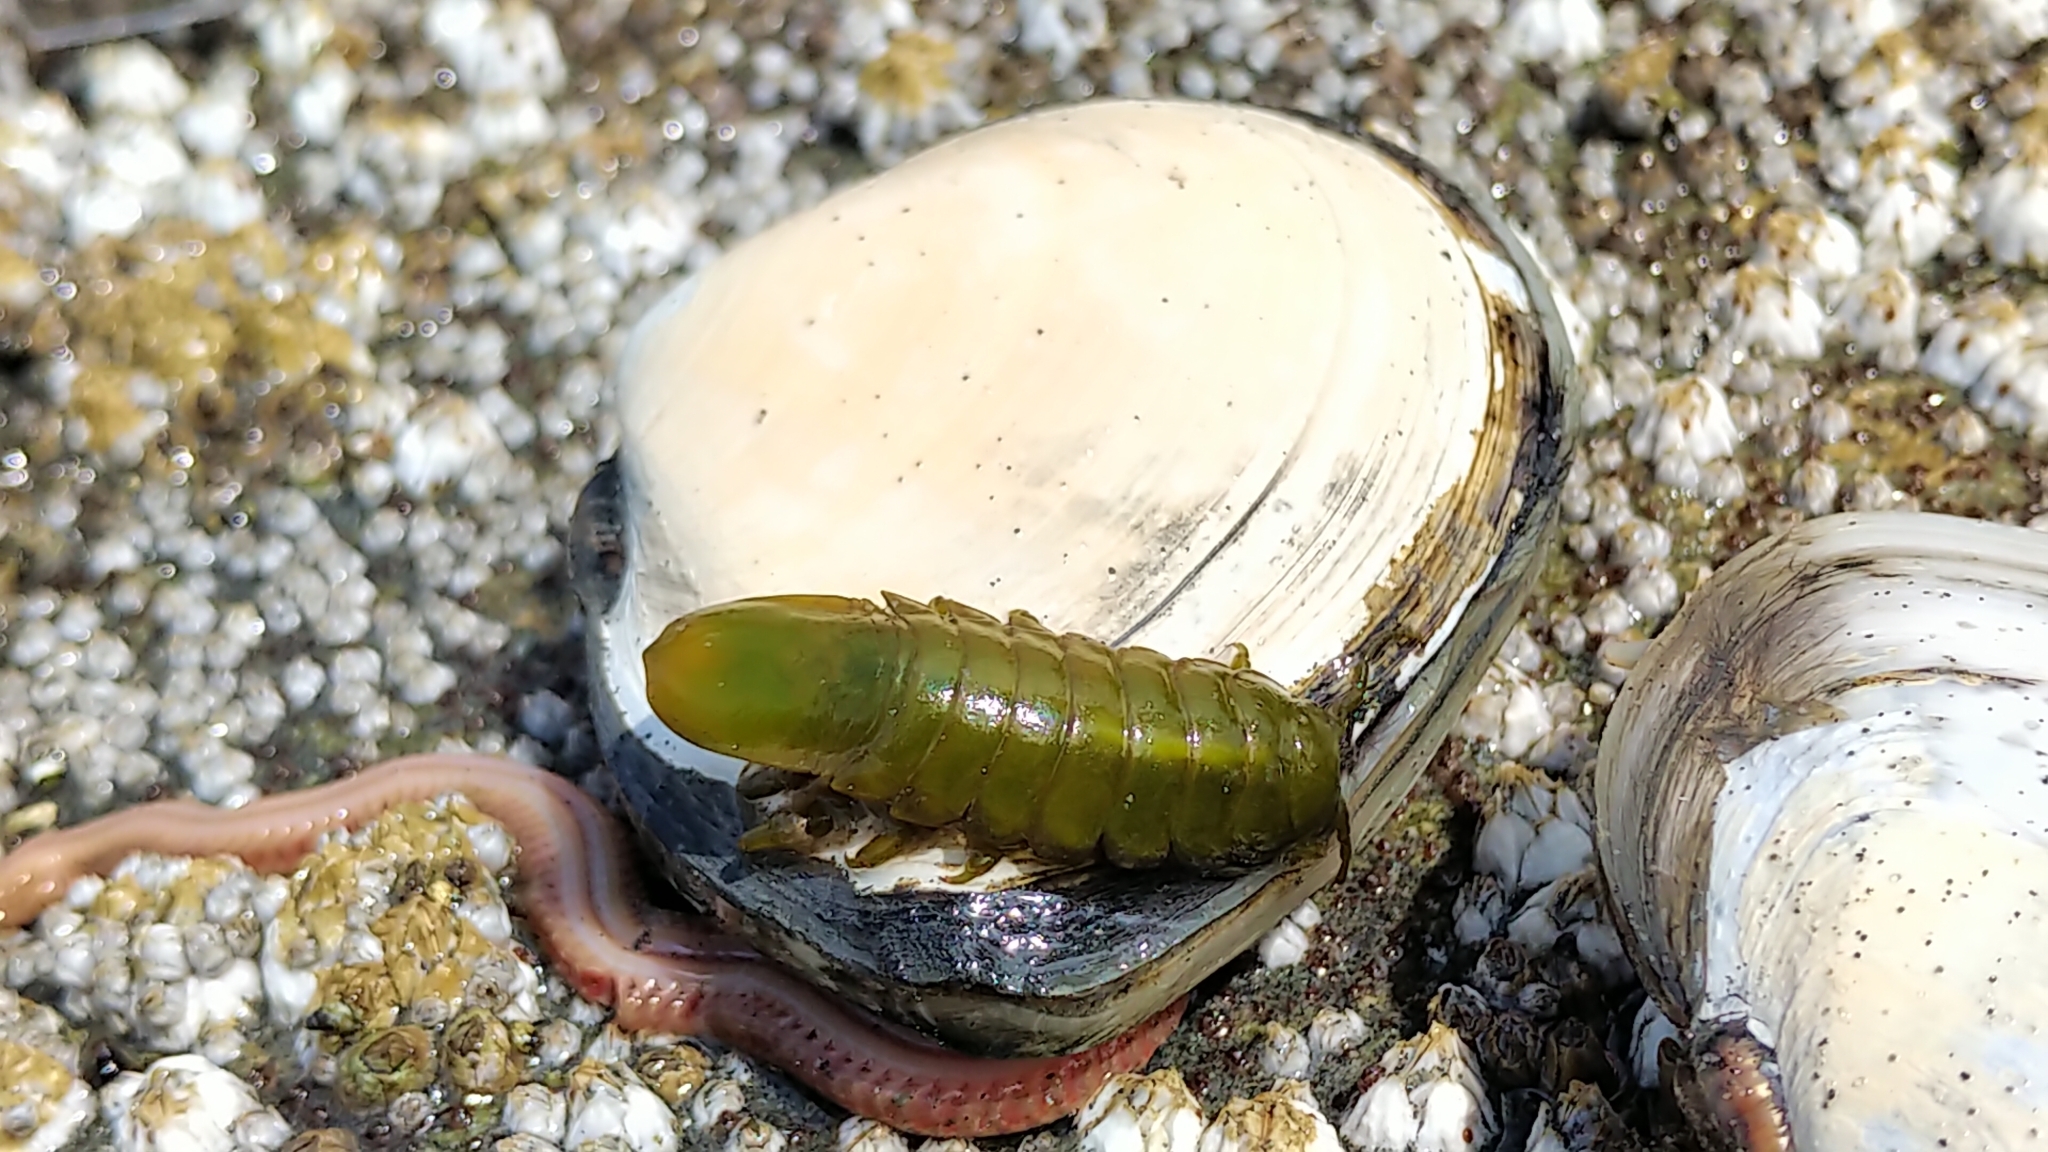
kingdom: Animalia
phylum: Arthropoda
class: Malacostraca
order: Isopoda
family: Idoteidae
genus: Pentidotea
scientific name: Pentidotea wosnesenskii
